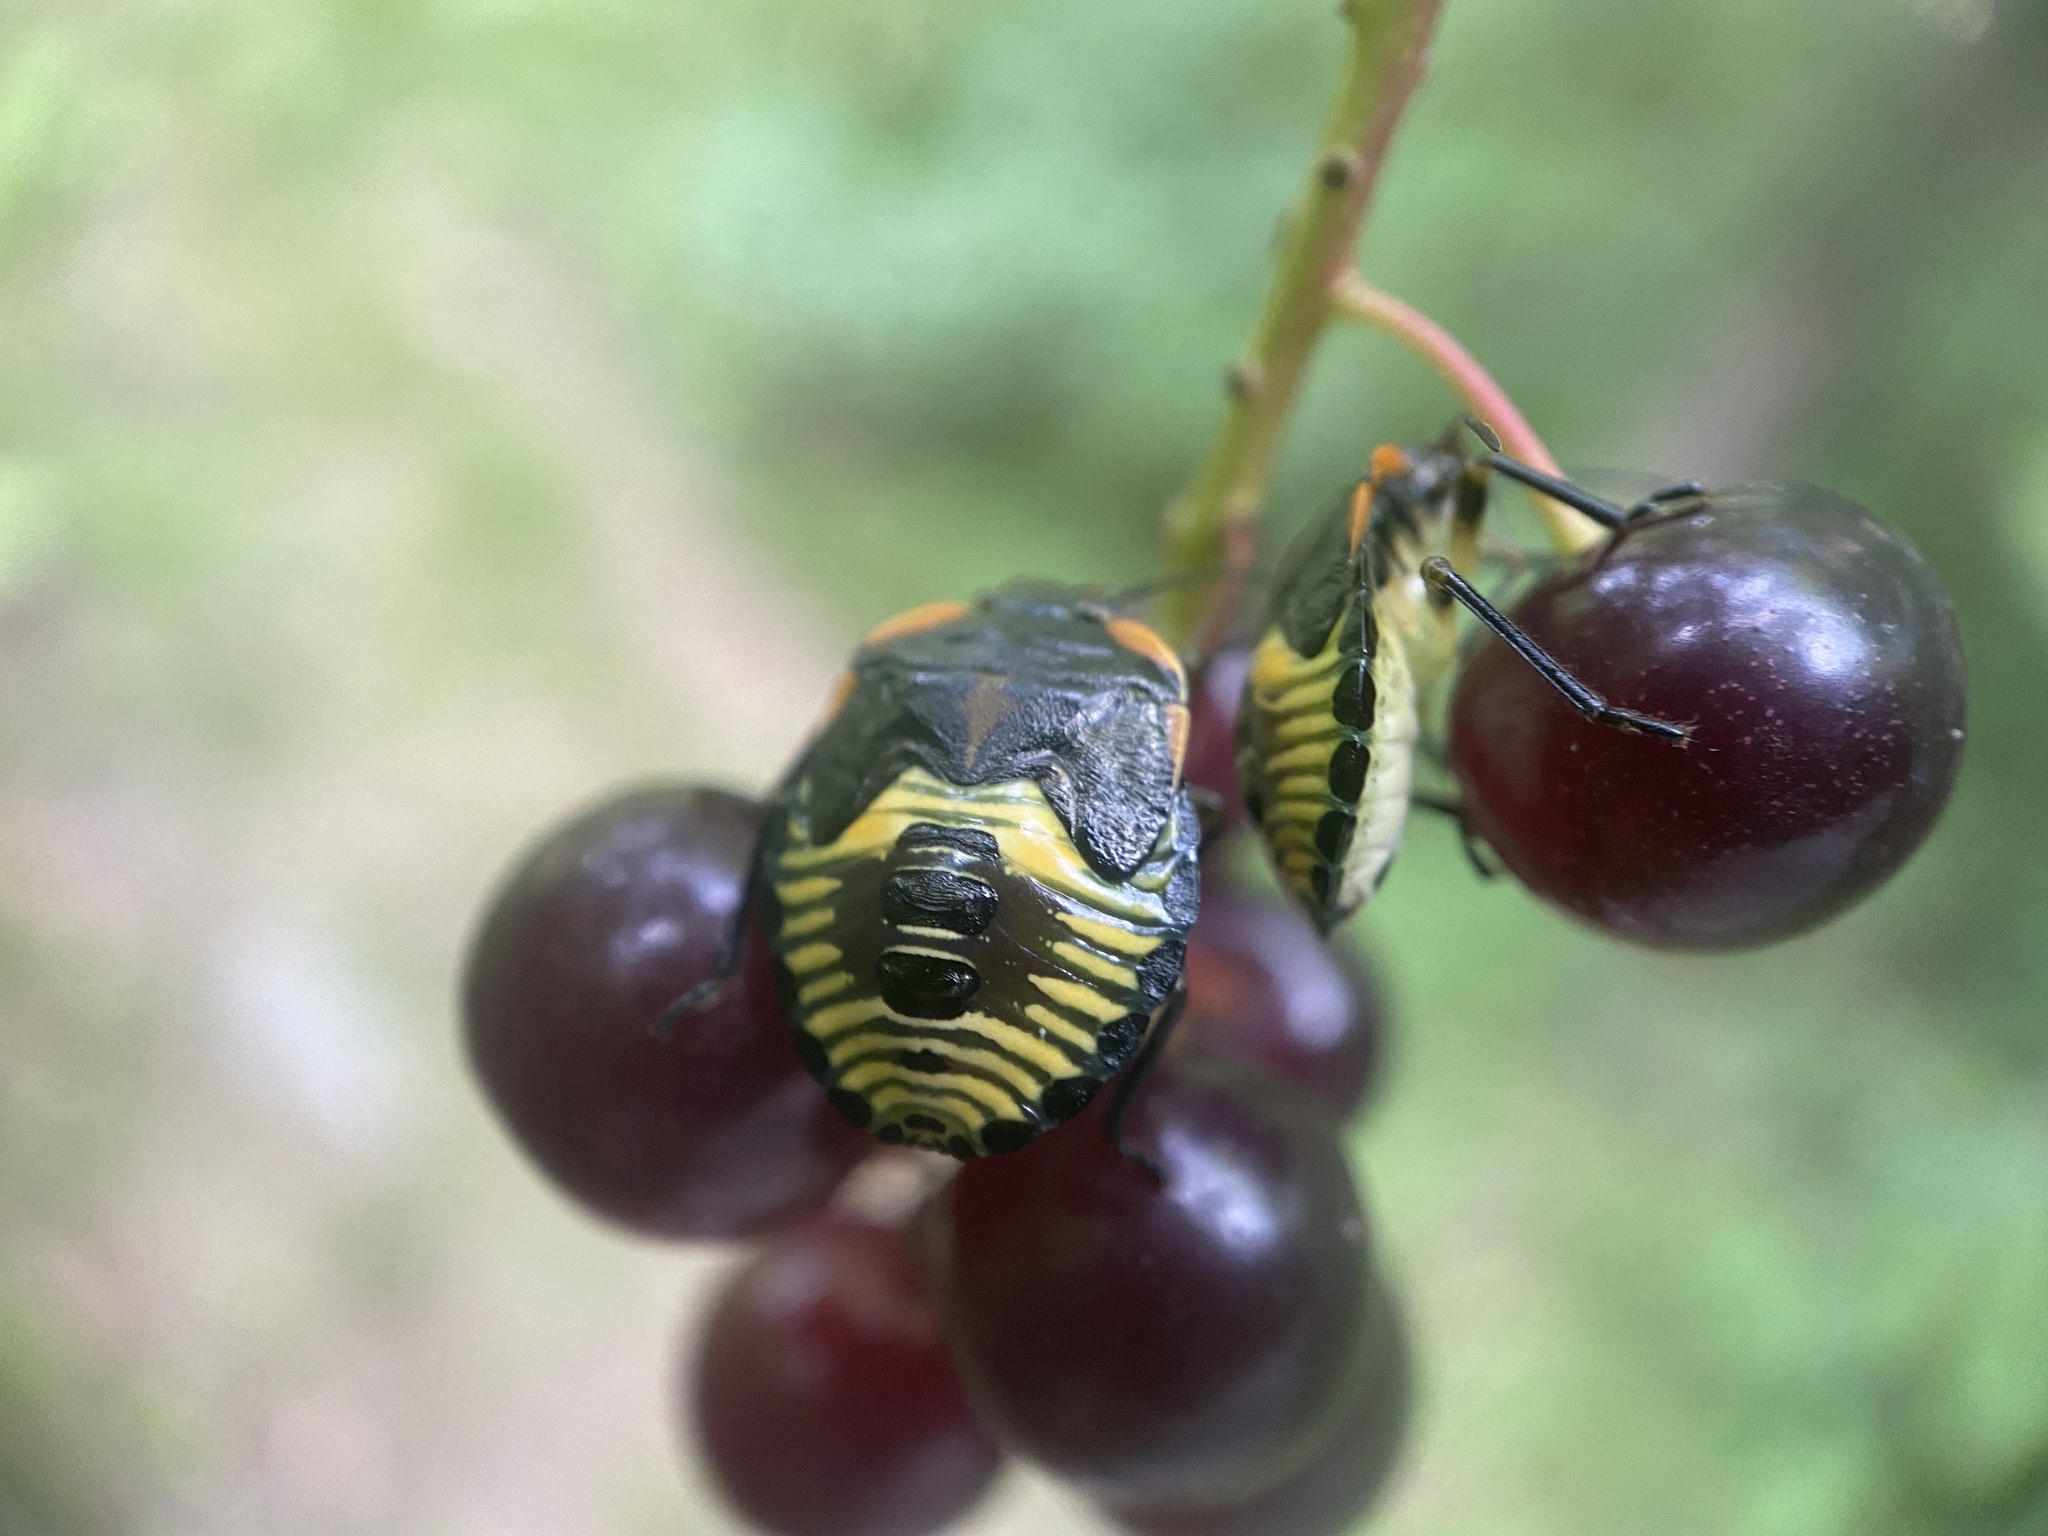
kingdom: Animalia
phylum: Arthropoda
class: Insecta
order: Hemiptera
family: Pentatomidae
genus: Chinavia
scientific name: Chinavia hilaris
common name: Green stink bug
